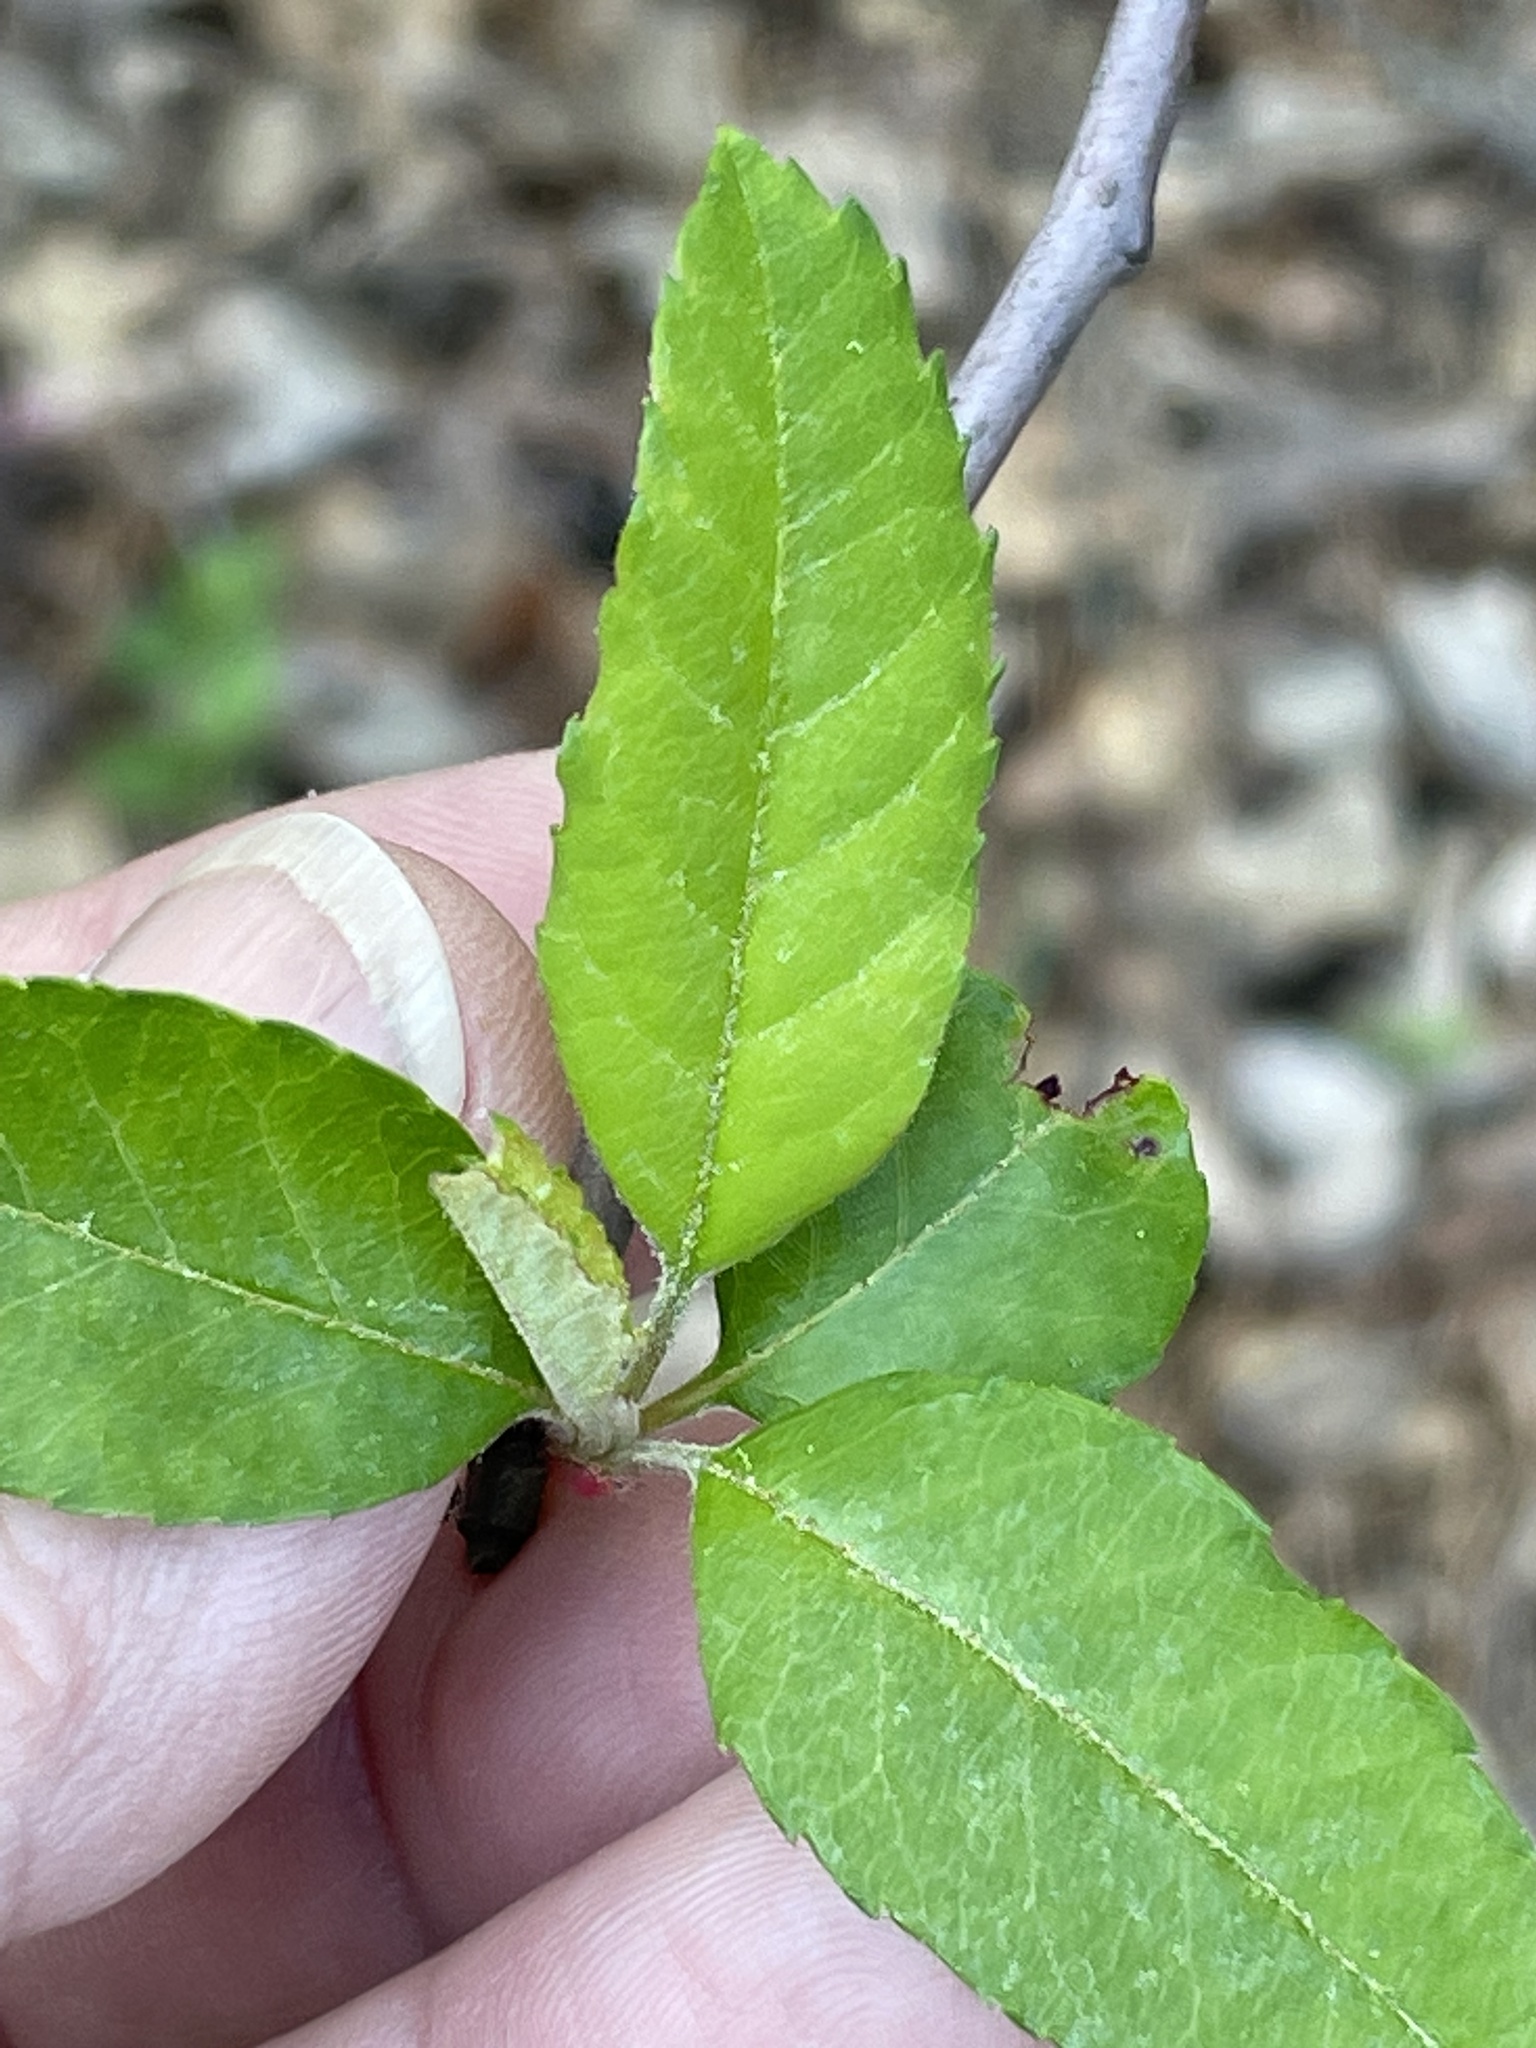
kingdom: Plantae
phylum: Tracheophyta
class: Magnoliopsida
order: Rosales
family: Rosaceae
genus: Malus
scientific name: Malus angustifolia
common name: Southern crab apple
